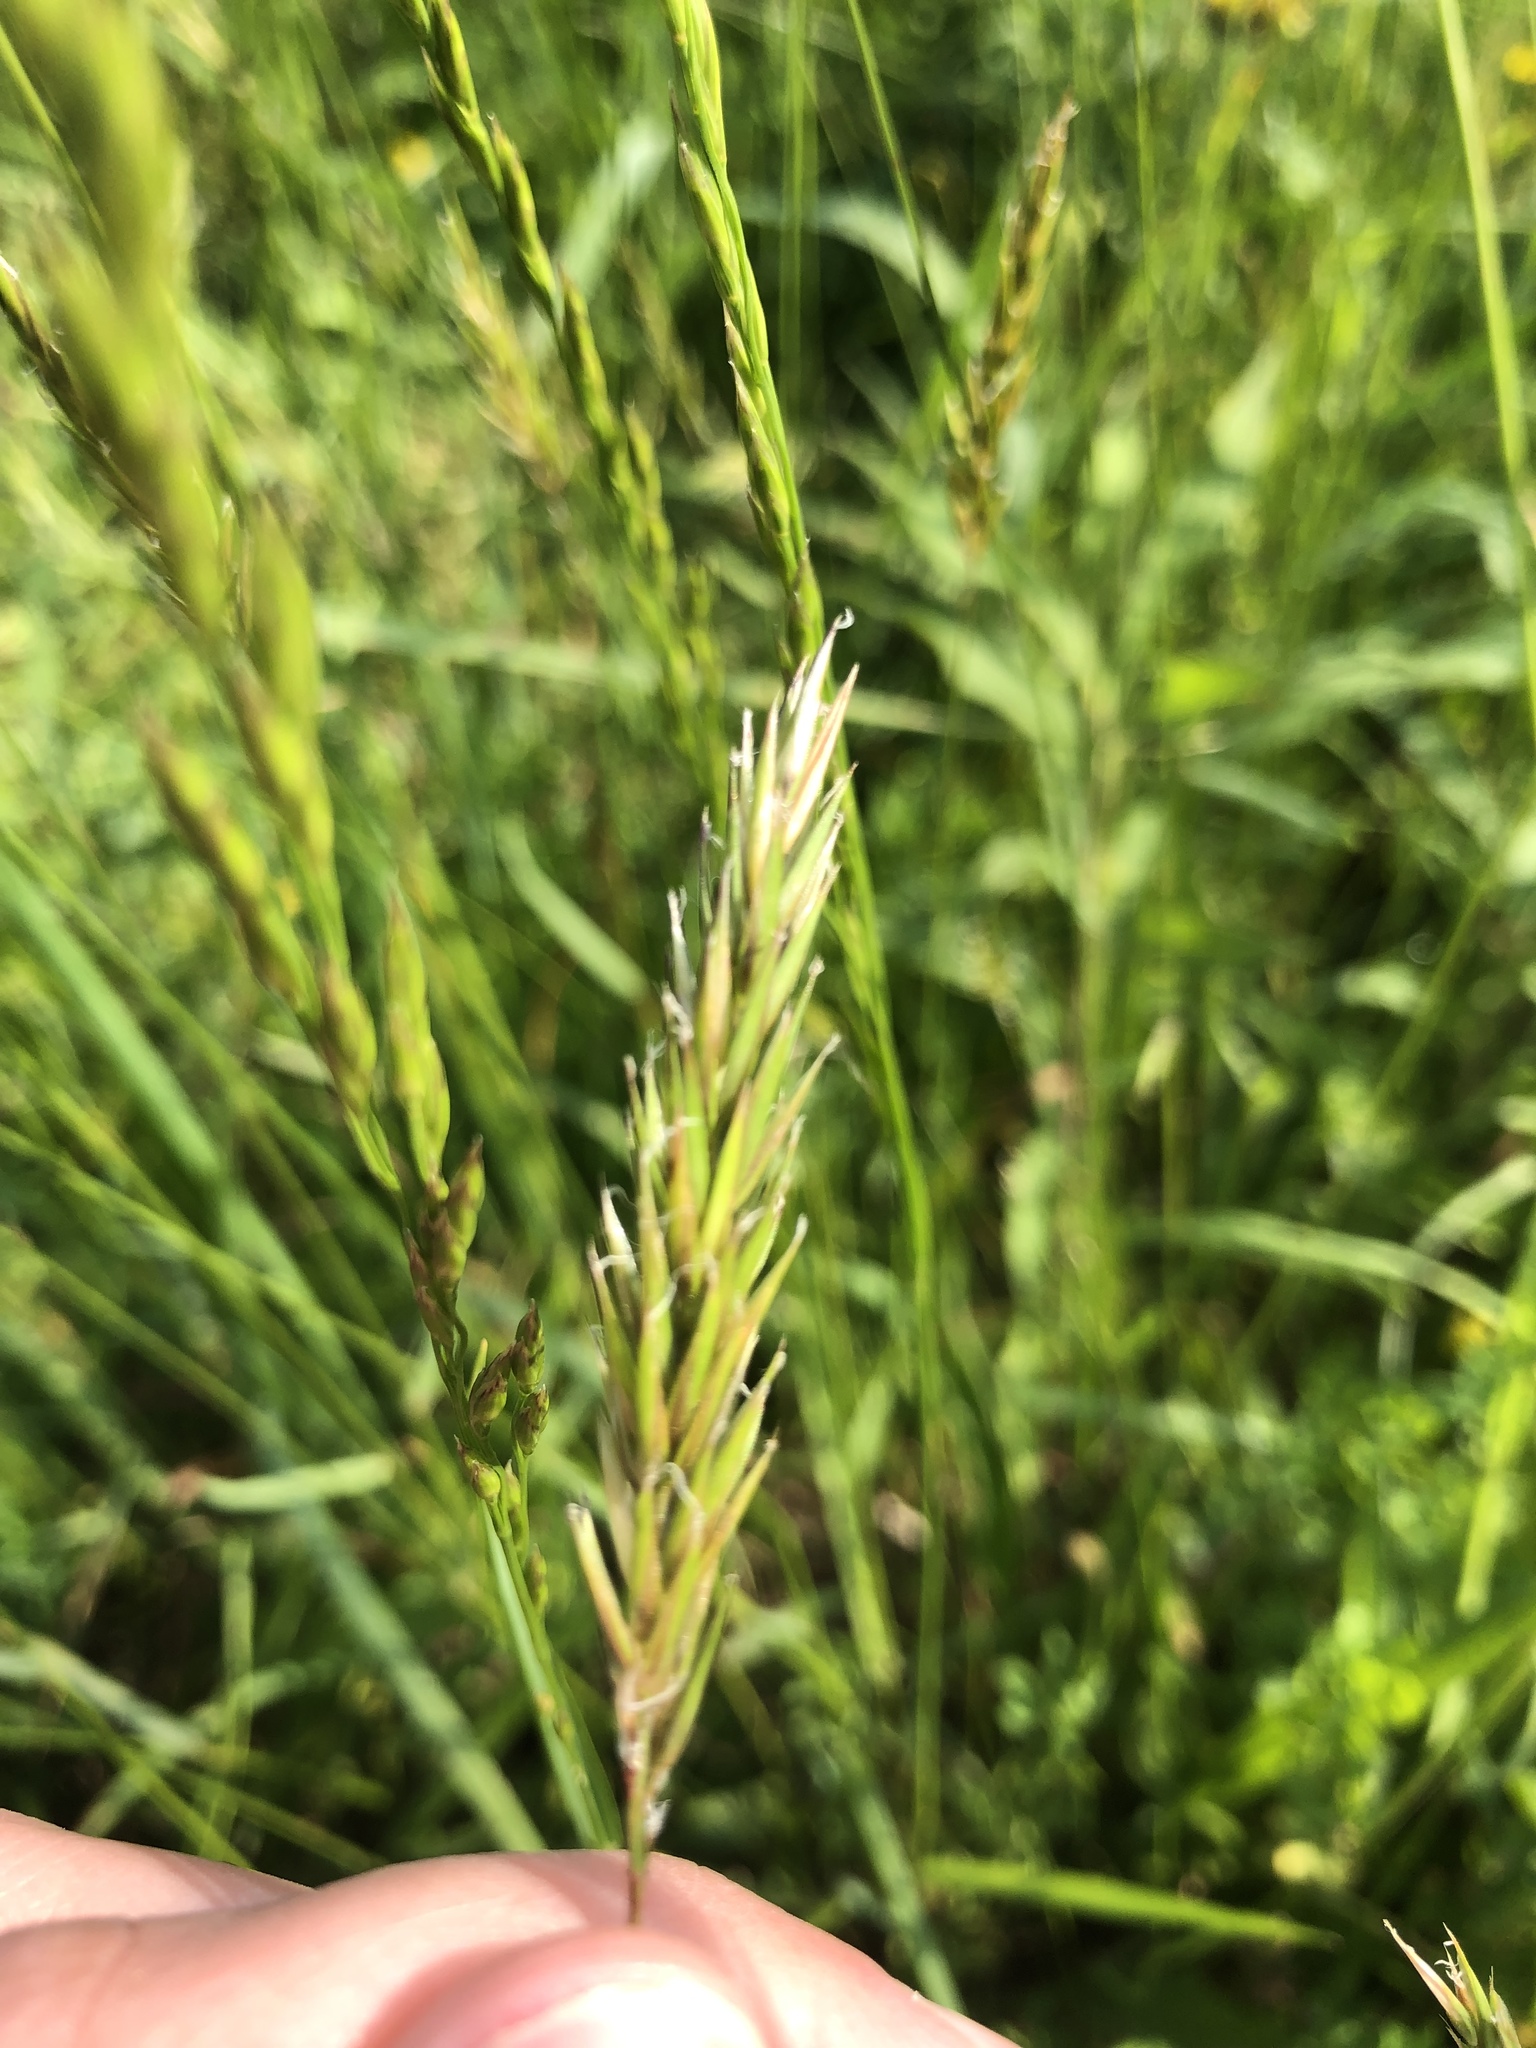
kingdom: Plantae
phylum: Tracheophyta
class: Liliopsida
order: Poales
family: Poaceae
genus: Anthoxanthum
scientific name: Anthoxanthum odoratum
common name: Sweet vernalgrass
